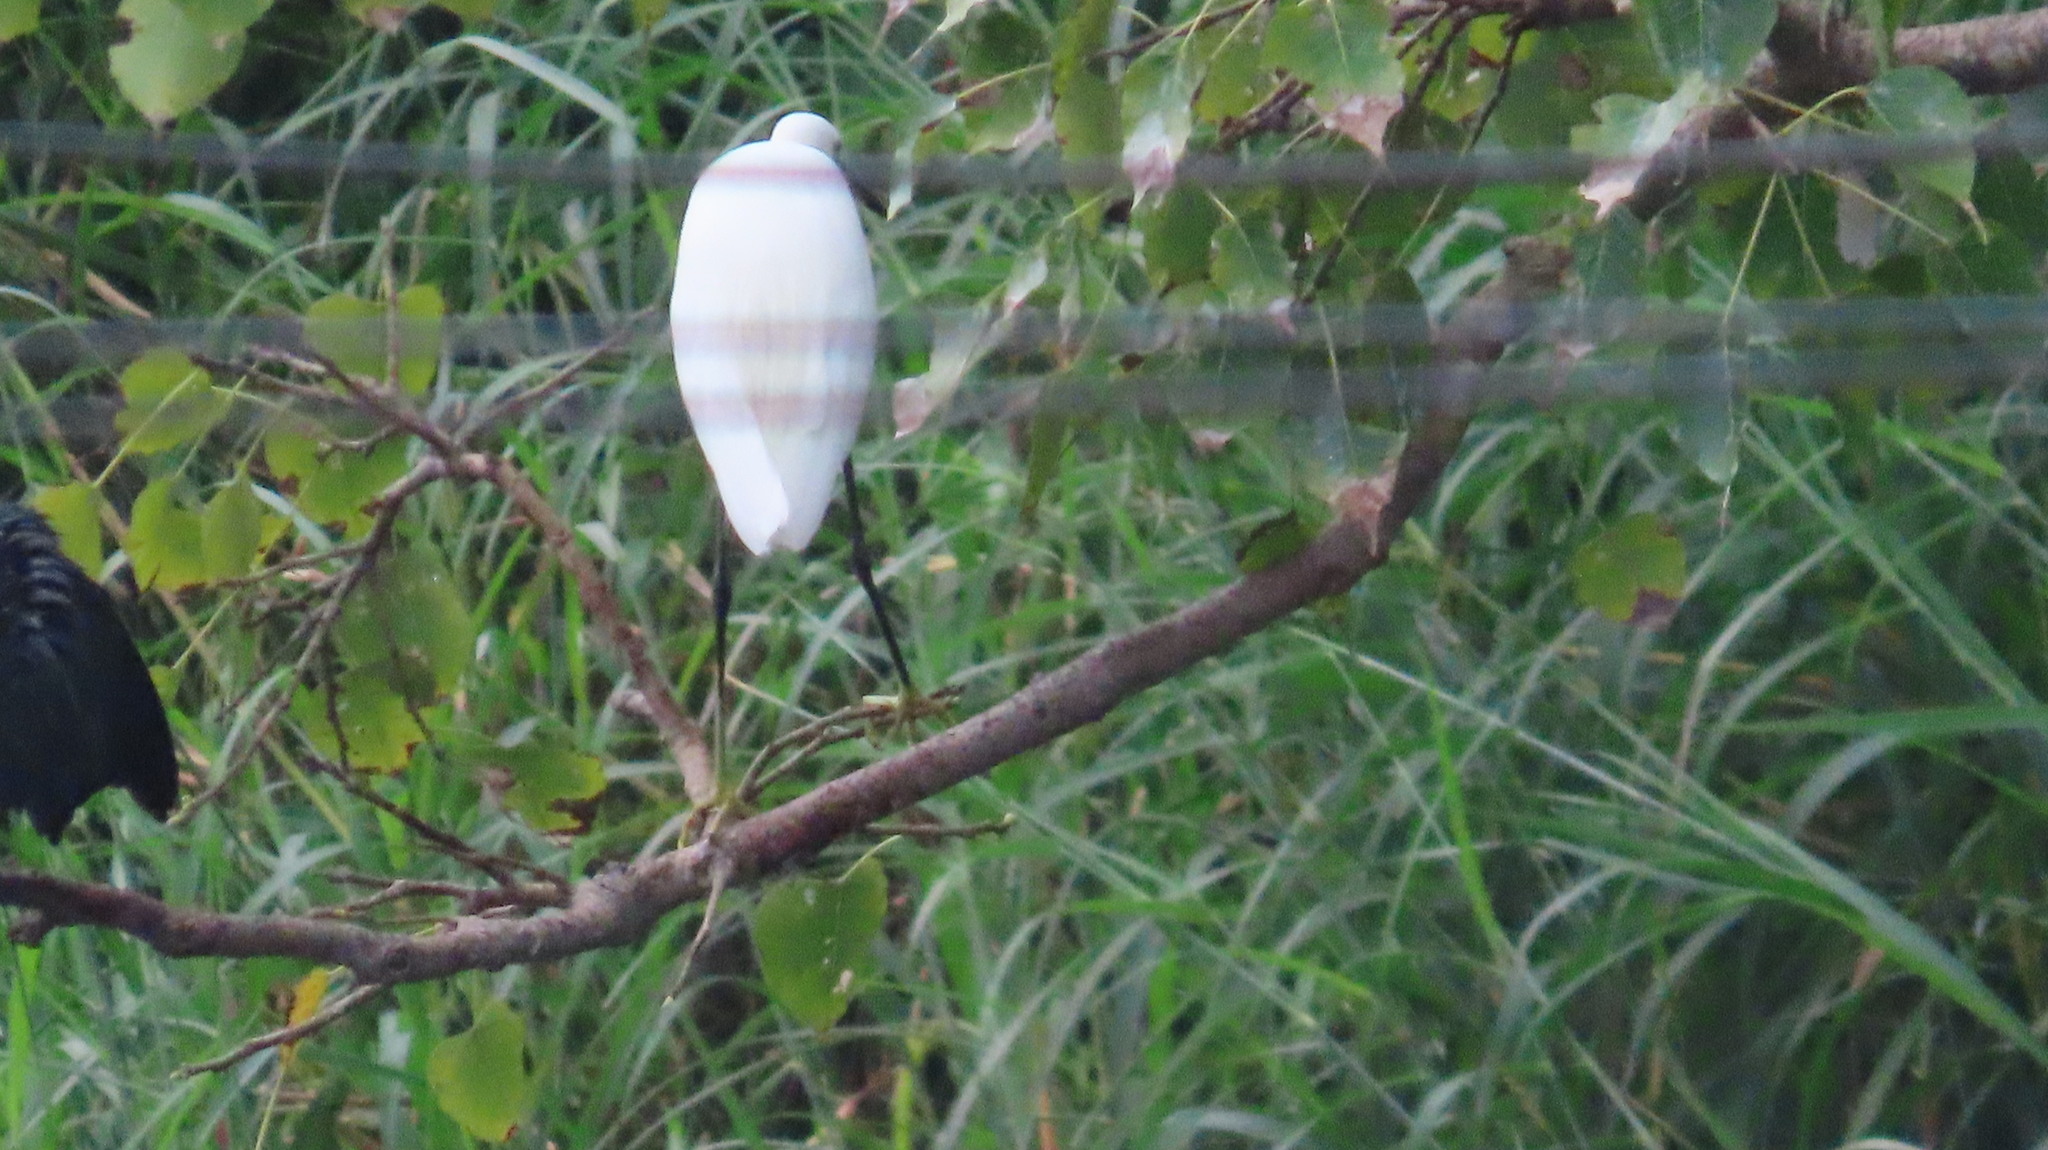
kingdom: Animalia
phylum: Chordata
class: Aves
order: Pelecaniformes
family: Ardeidae
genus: Egretta
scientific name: Egretta garzetta
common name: Little egret
